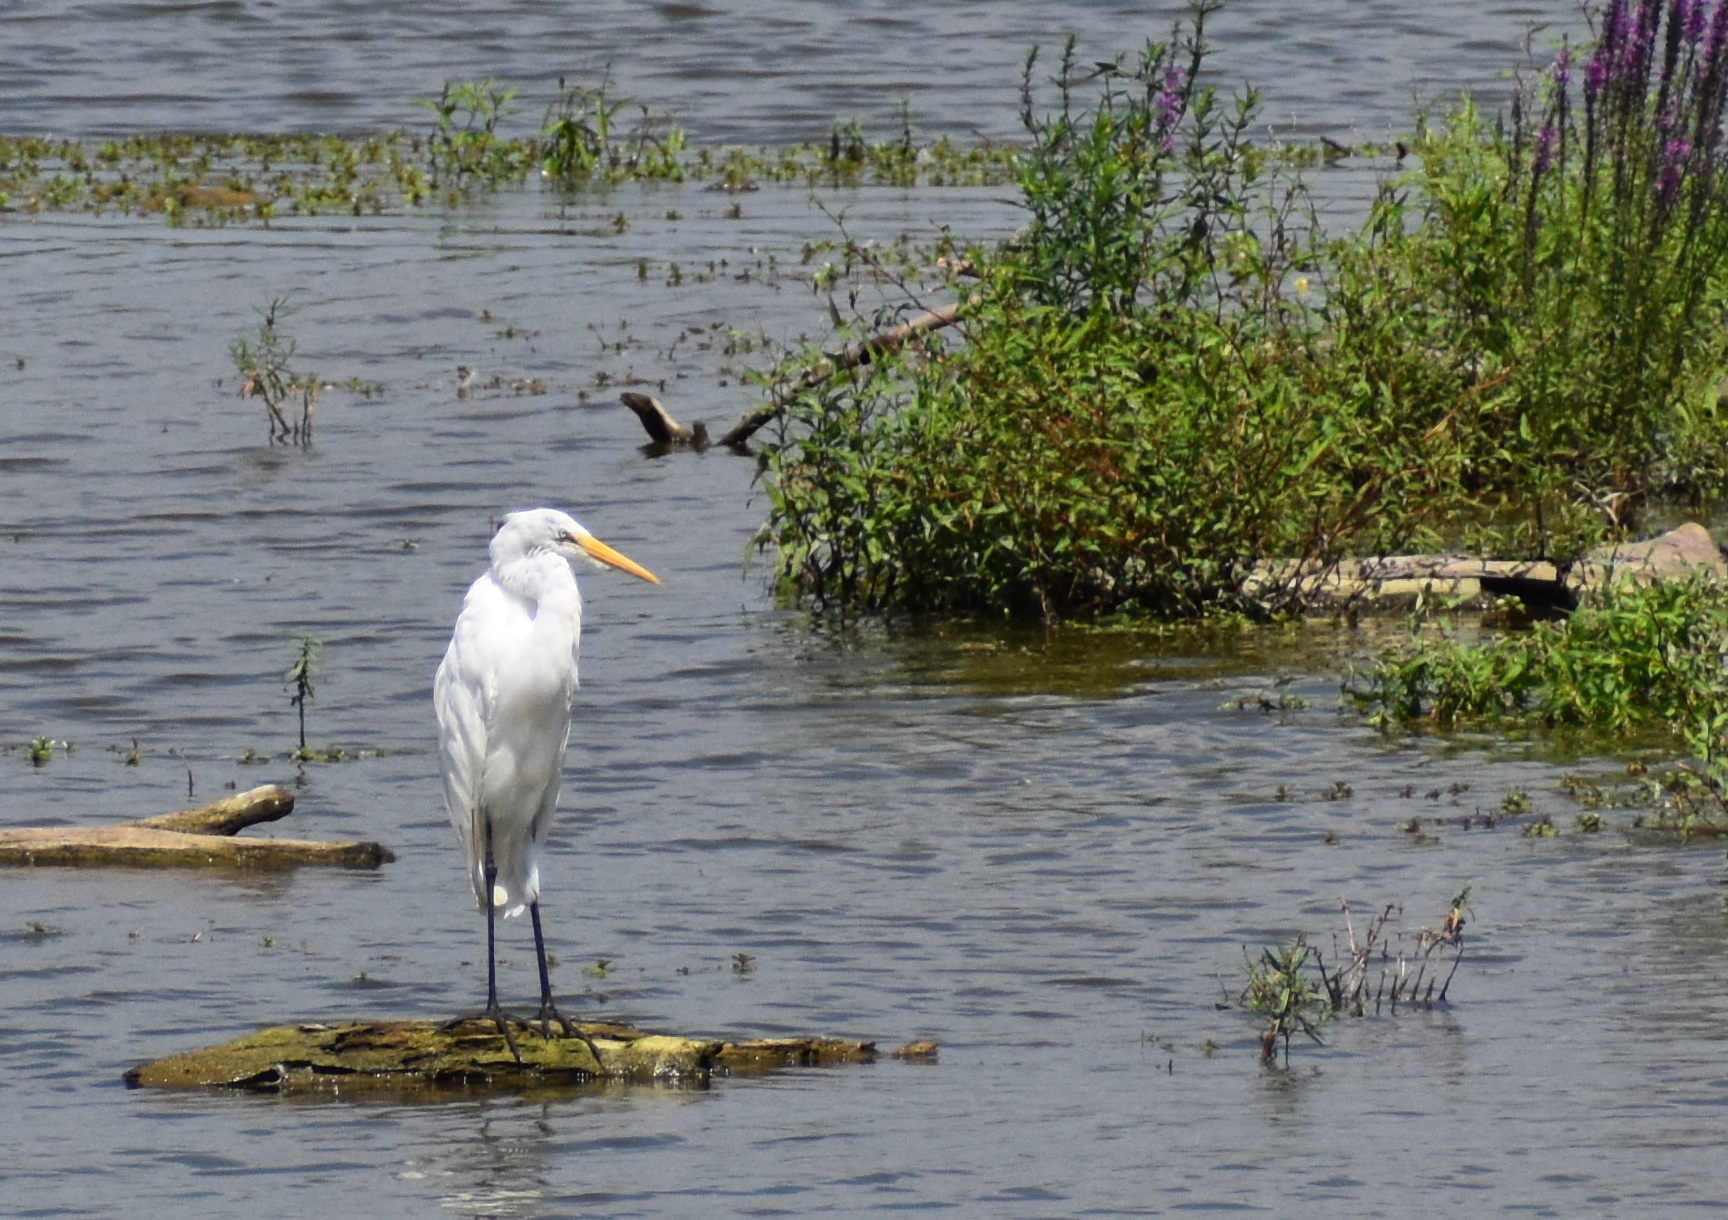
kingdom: Animalia
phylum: Chordata
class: Aves
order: Pelecaniformes
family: Ardeidae
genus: Ardea
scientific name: Ardea alba
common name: Great egret
